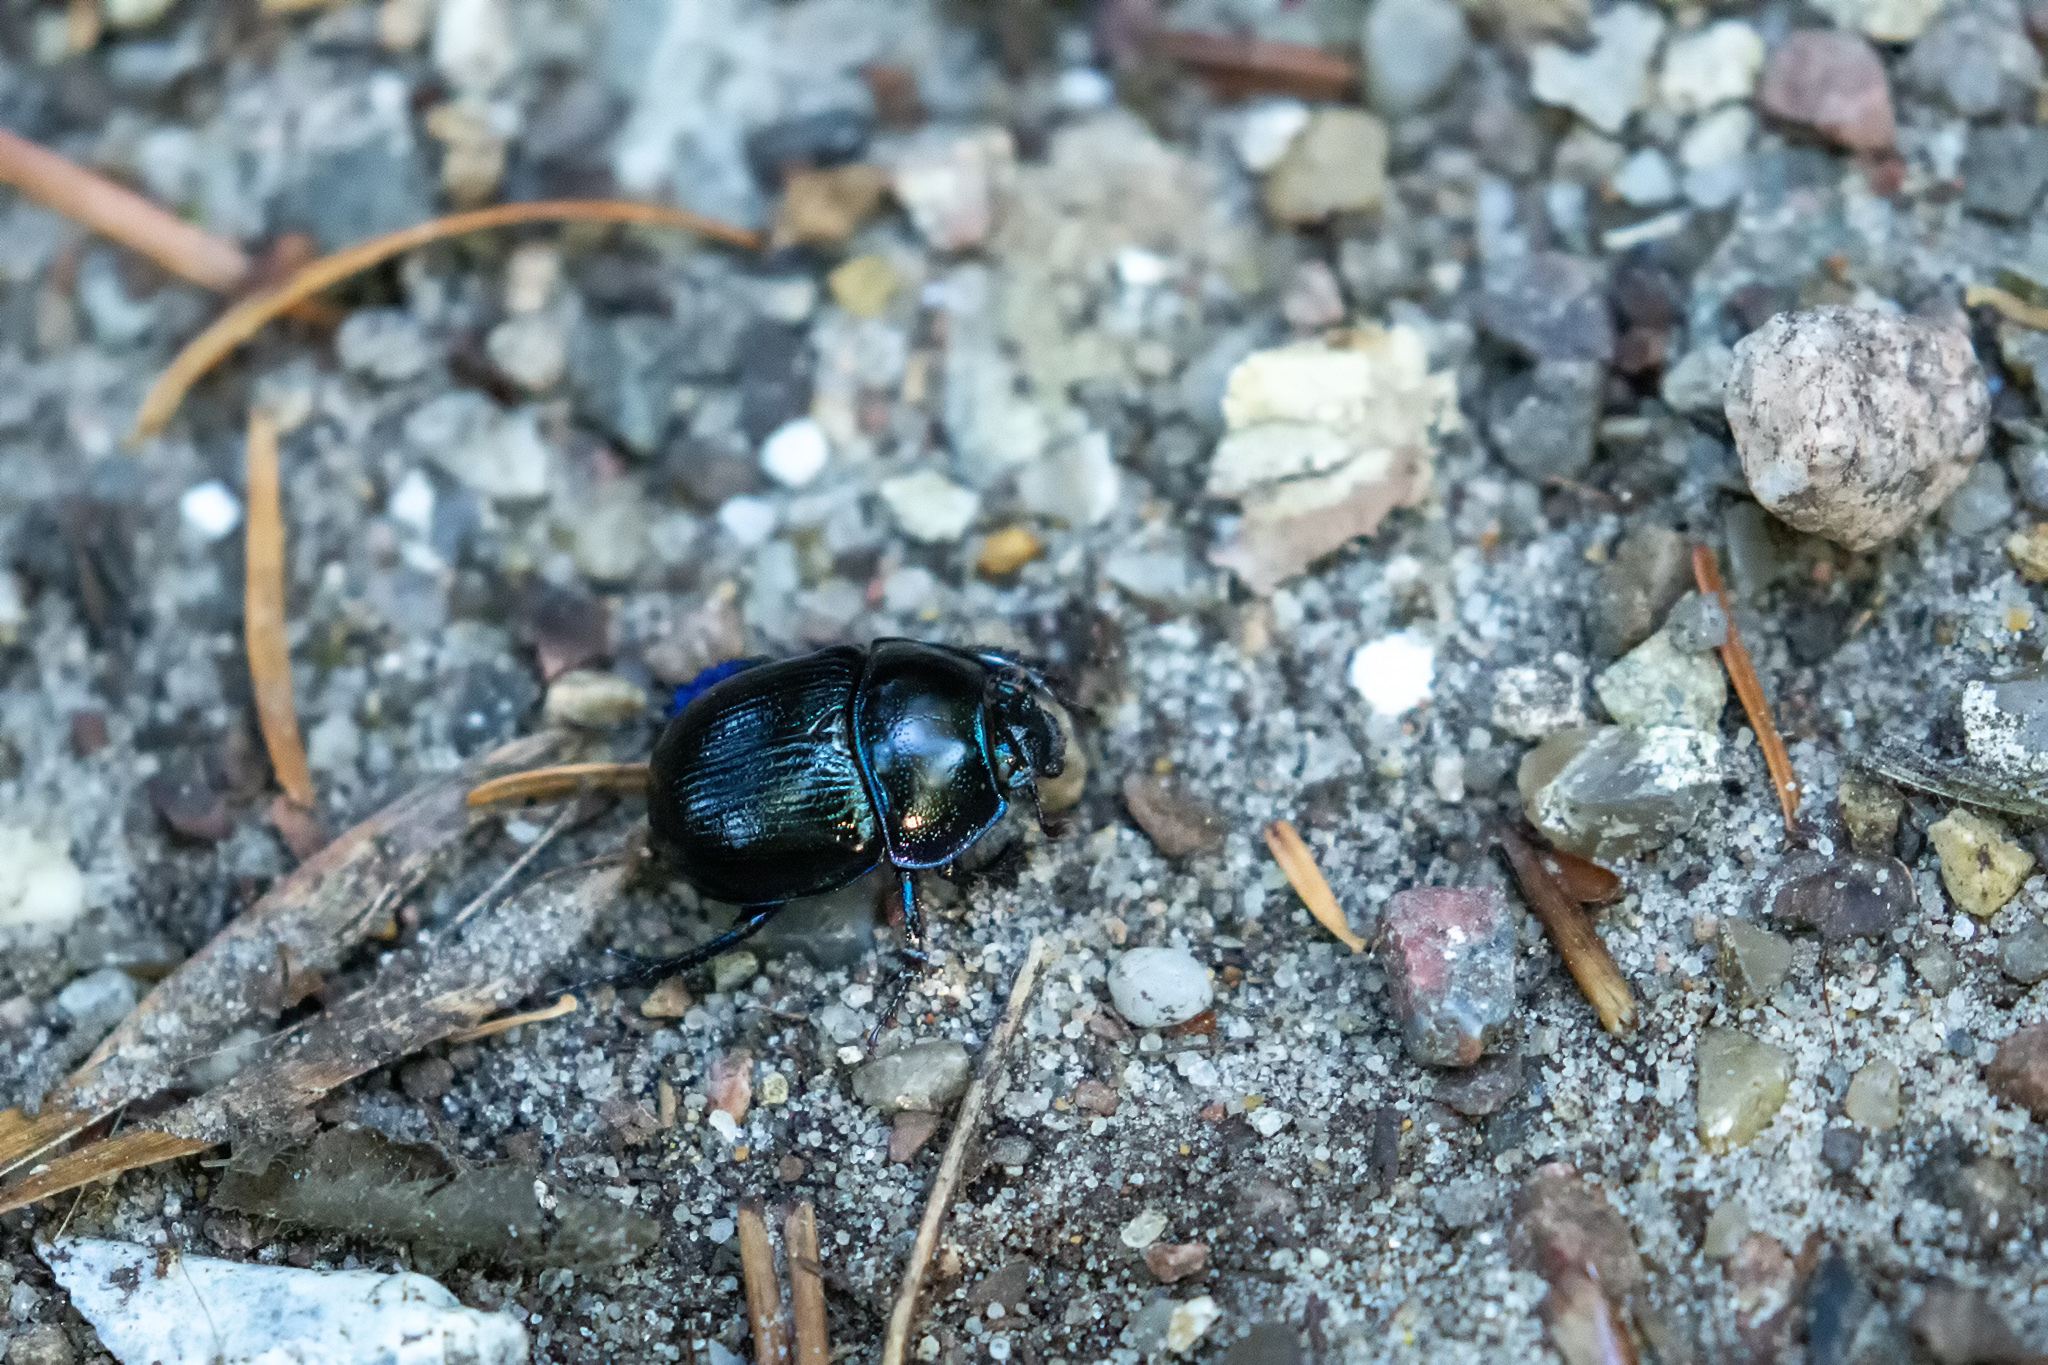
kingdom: Animalia
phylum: Arthropoda
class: Insecta
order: Coleoptera
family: Geotrupidae
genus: Anoplotrupes
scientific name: Anoplotrupes stercorosus
